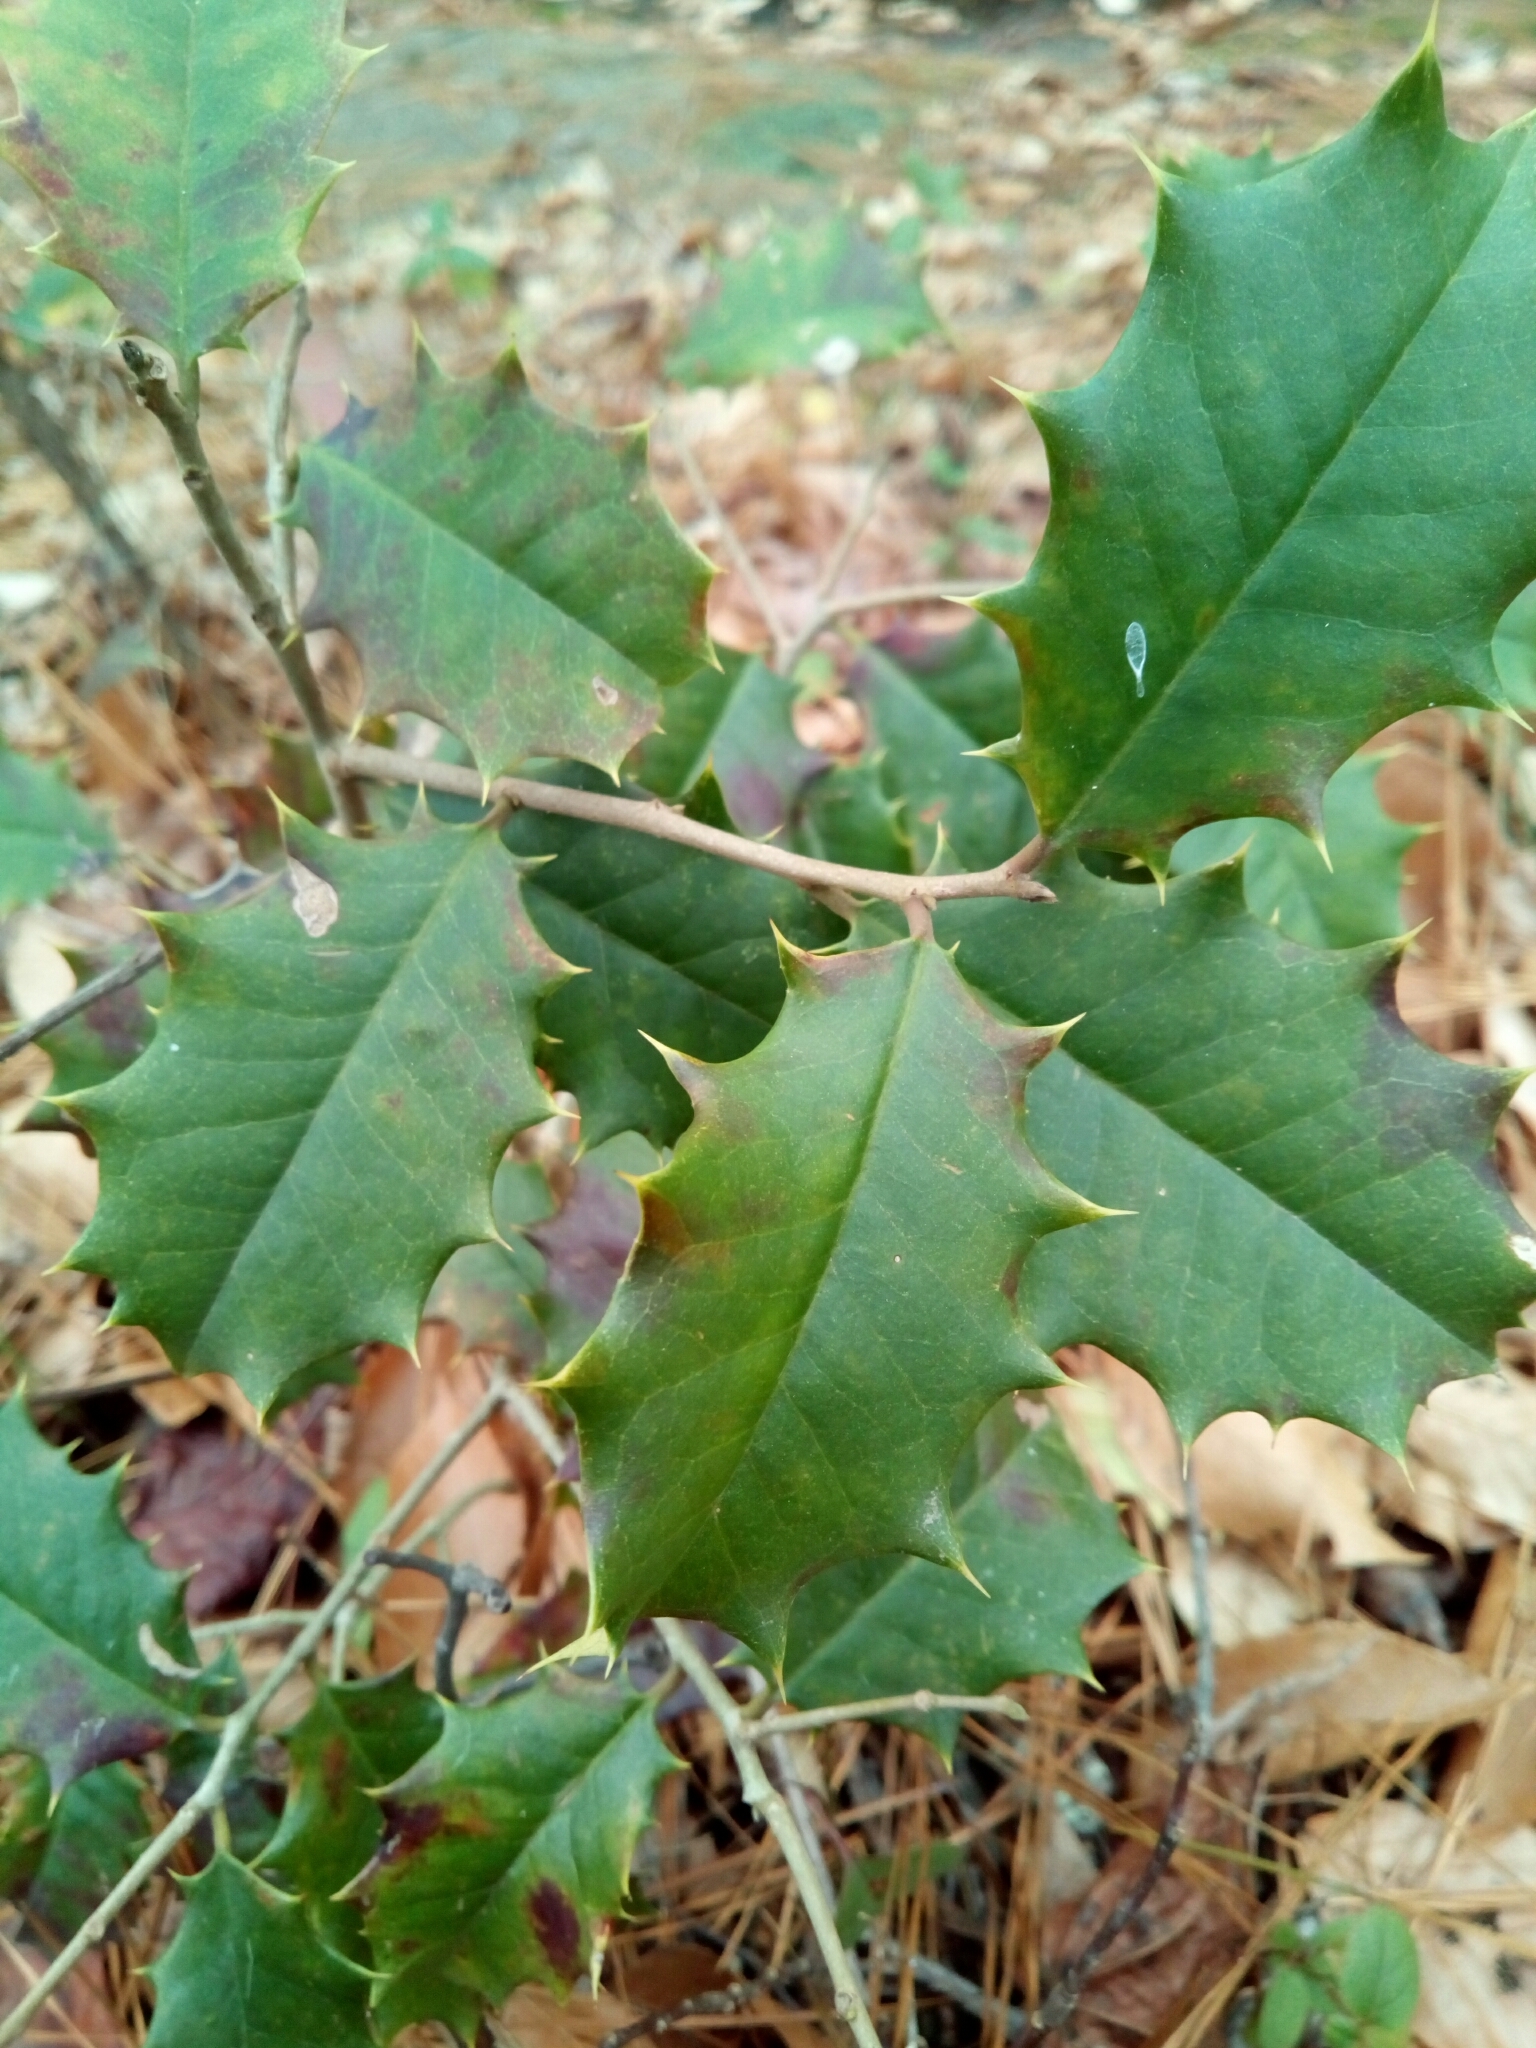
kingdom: Plantae
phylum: Tracheophyta
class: Magnoliopsida
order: Aquifoliales
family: Aquifoliaceae
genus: Ilex
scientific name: Ilex opaca
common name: American holly
